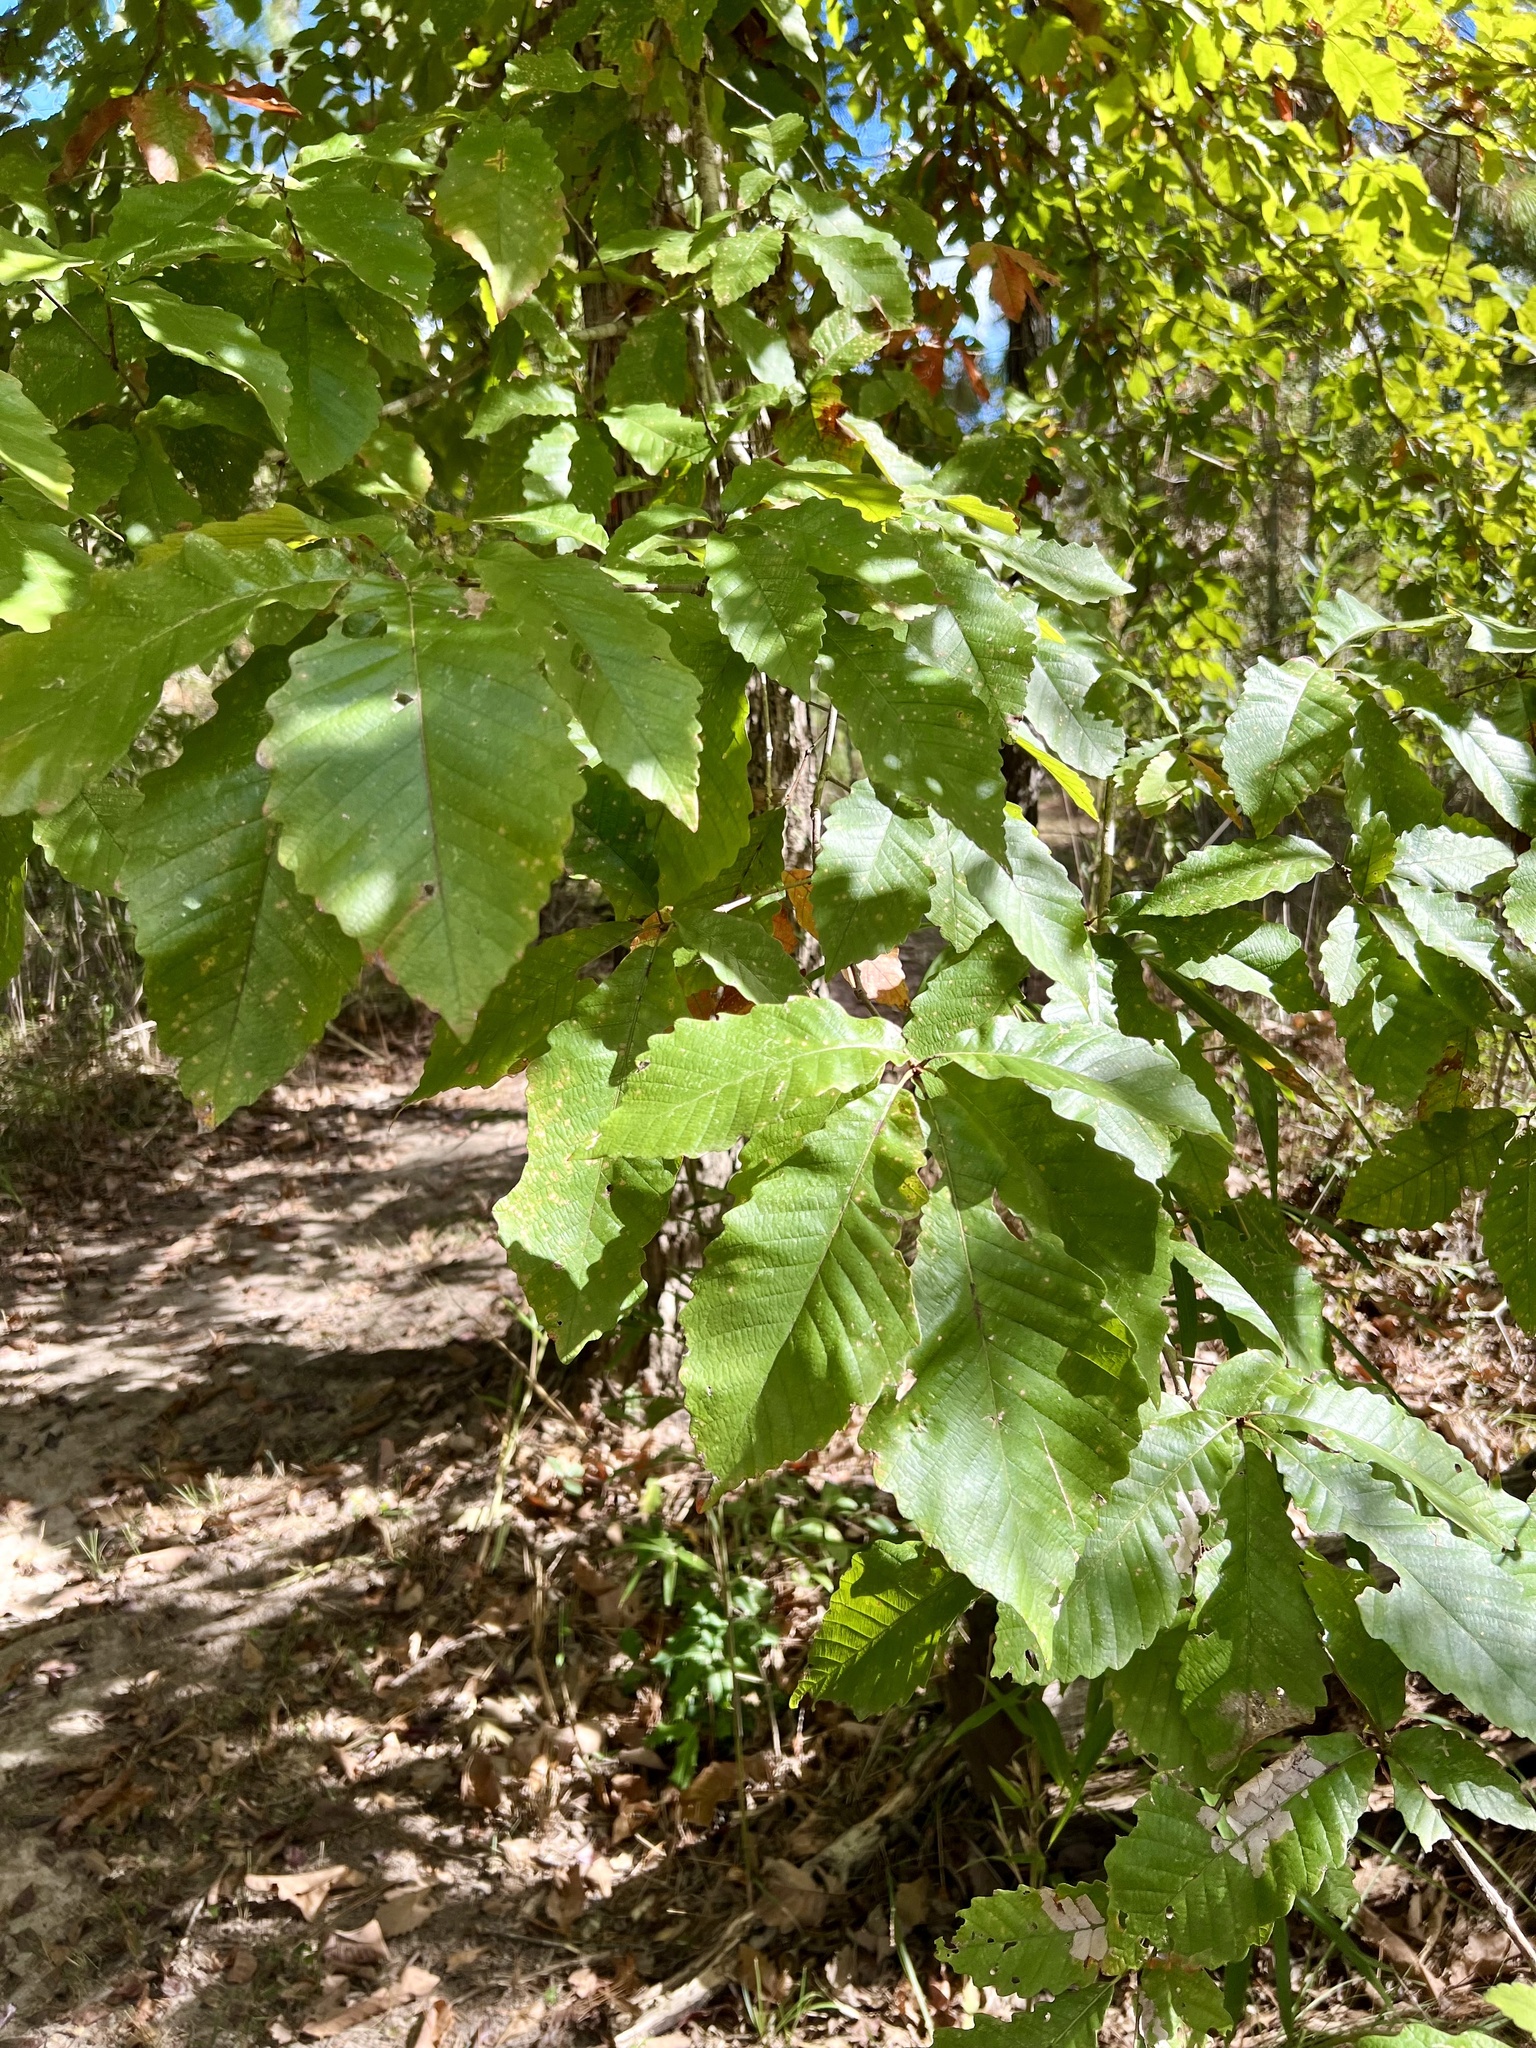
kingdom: Plantae
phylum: Tracheophyta
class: Magnoliopsida
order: Fagales
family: Fagaceae
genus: Quercus
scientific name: Quercus michauxii
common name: Swamp chestnut oak
